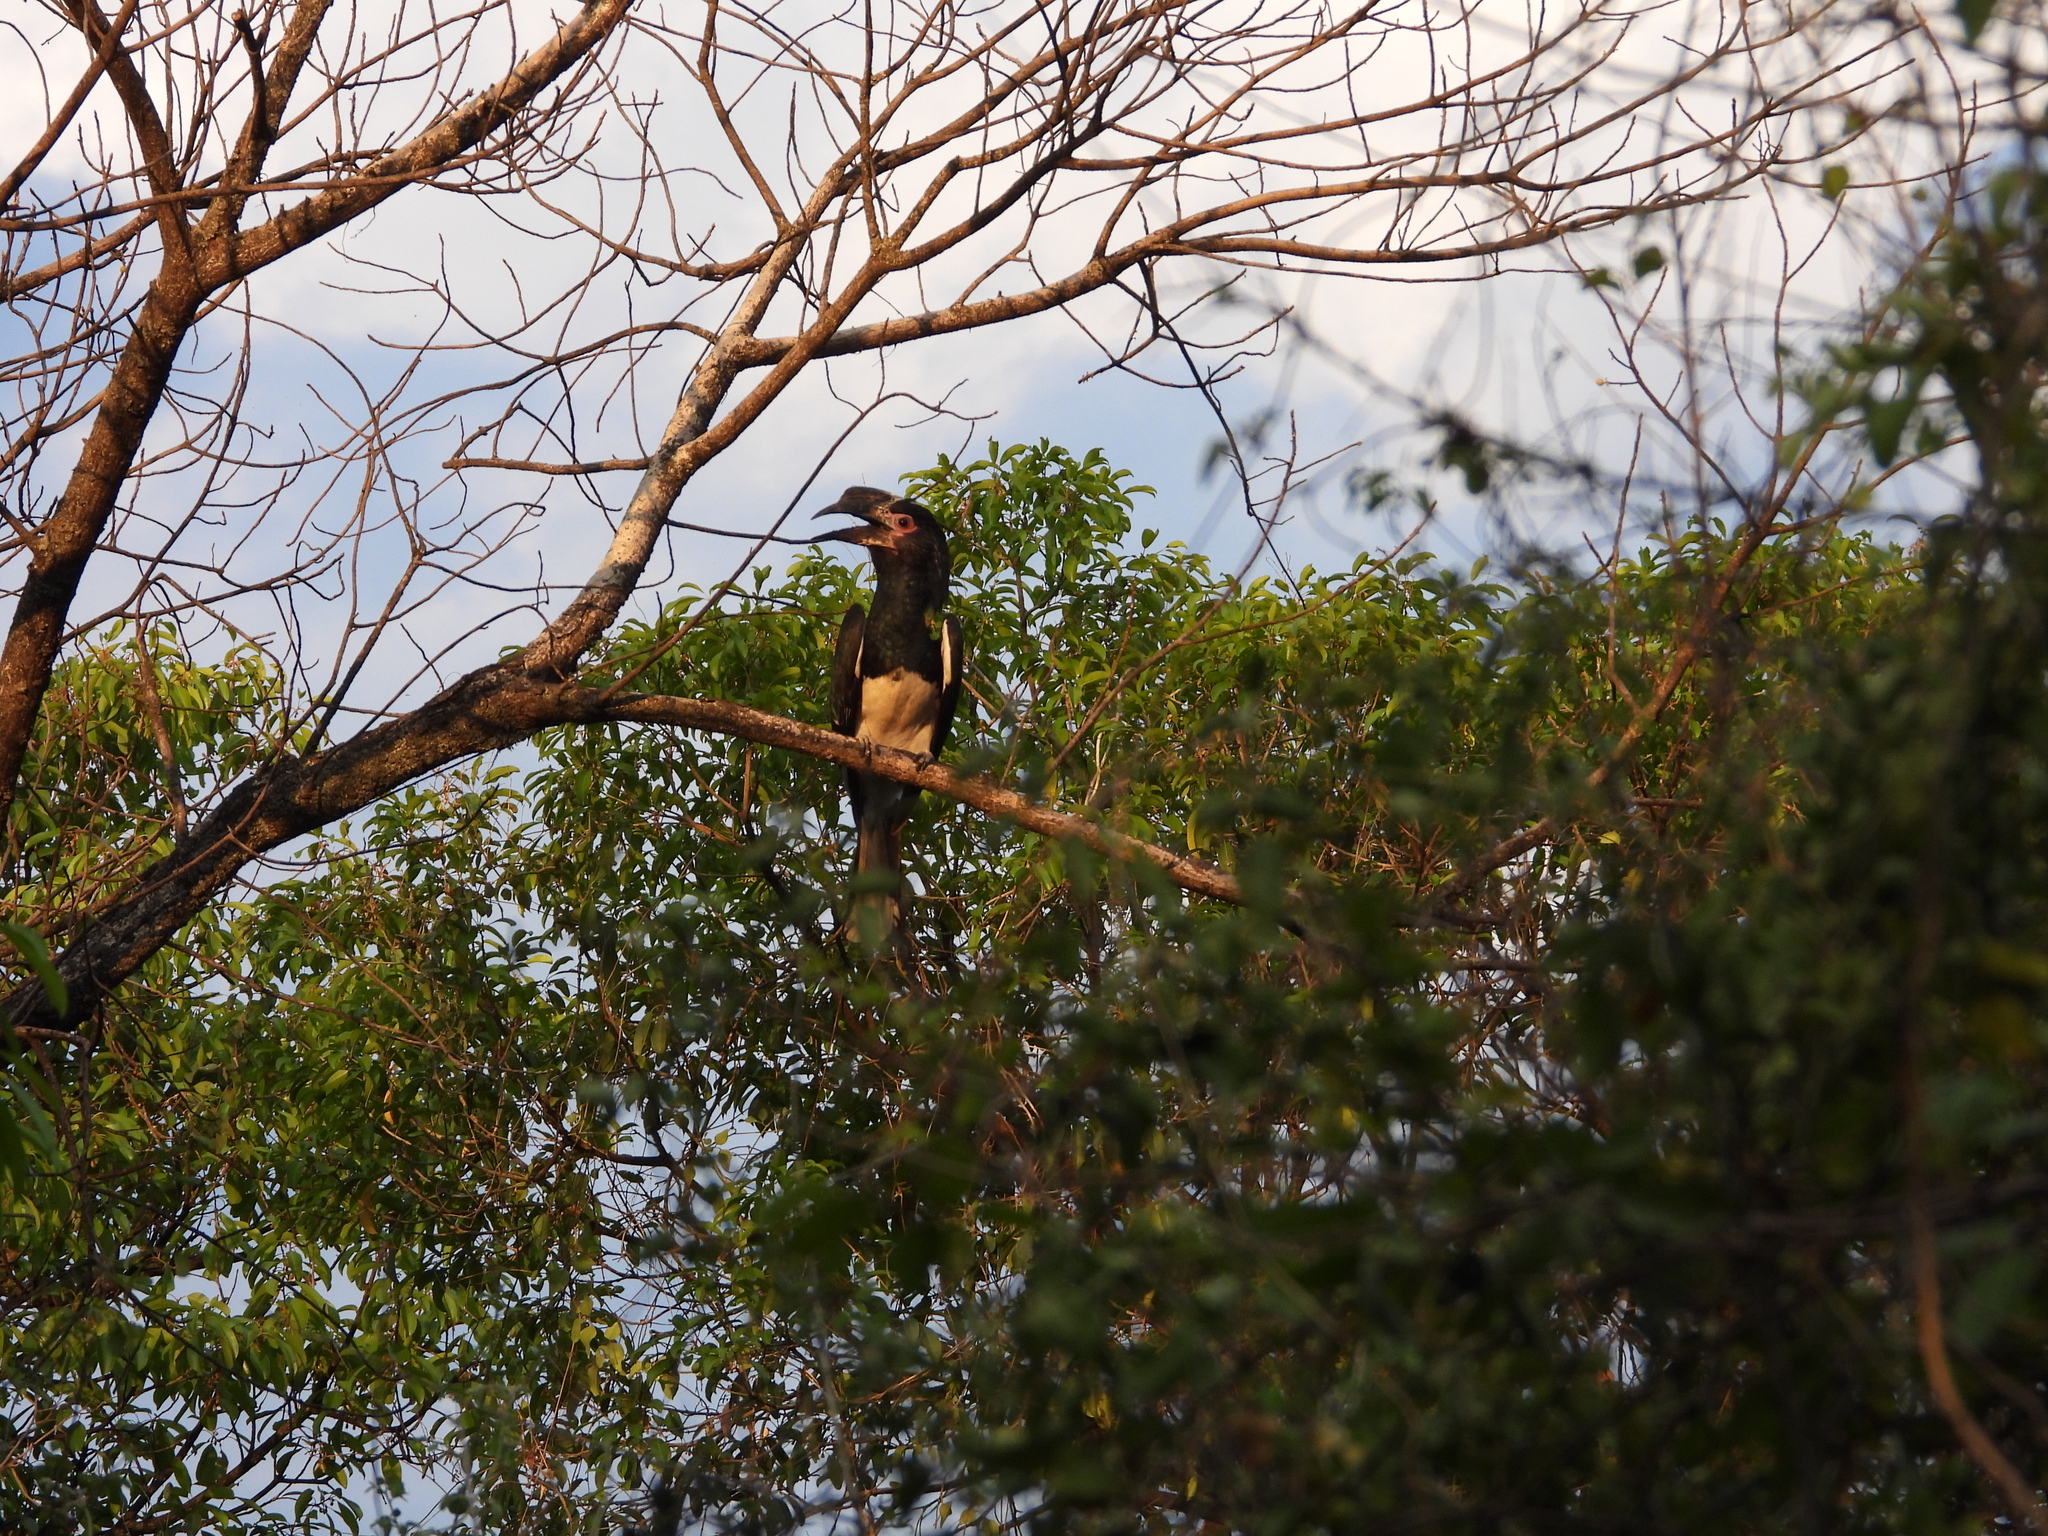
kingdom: Animalia
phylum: Chordata
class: Aves
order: Bucerotiformes
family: Bucerotidae
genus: Bycanistes
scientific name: Bycanistes bucinator
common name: Trumpeter hornbill
